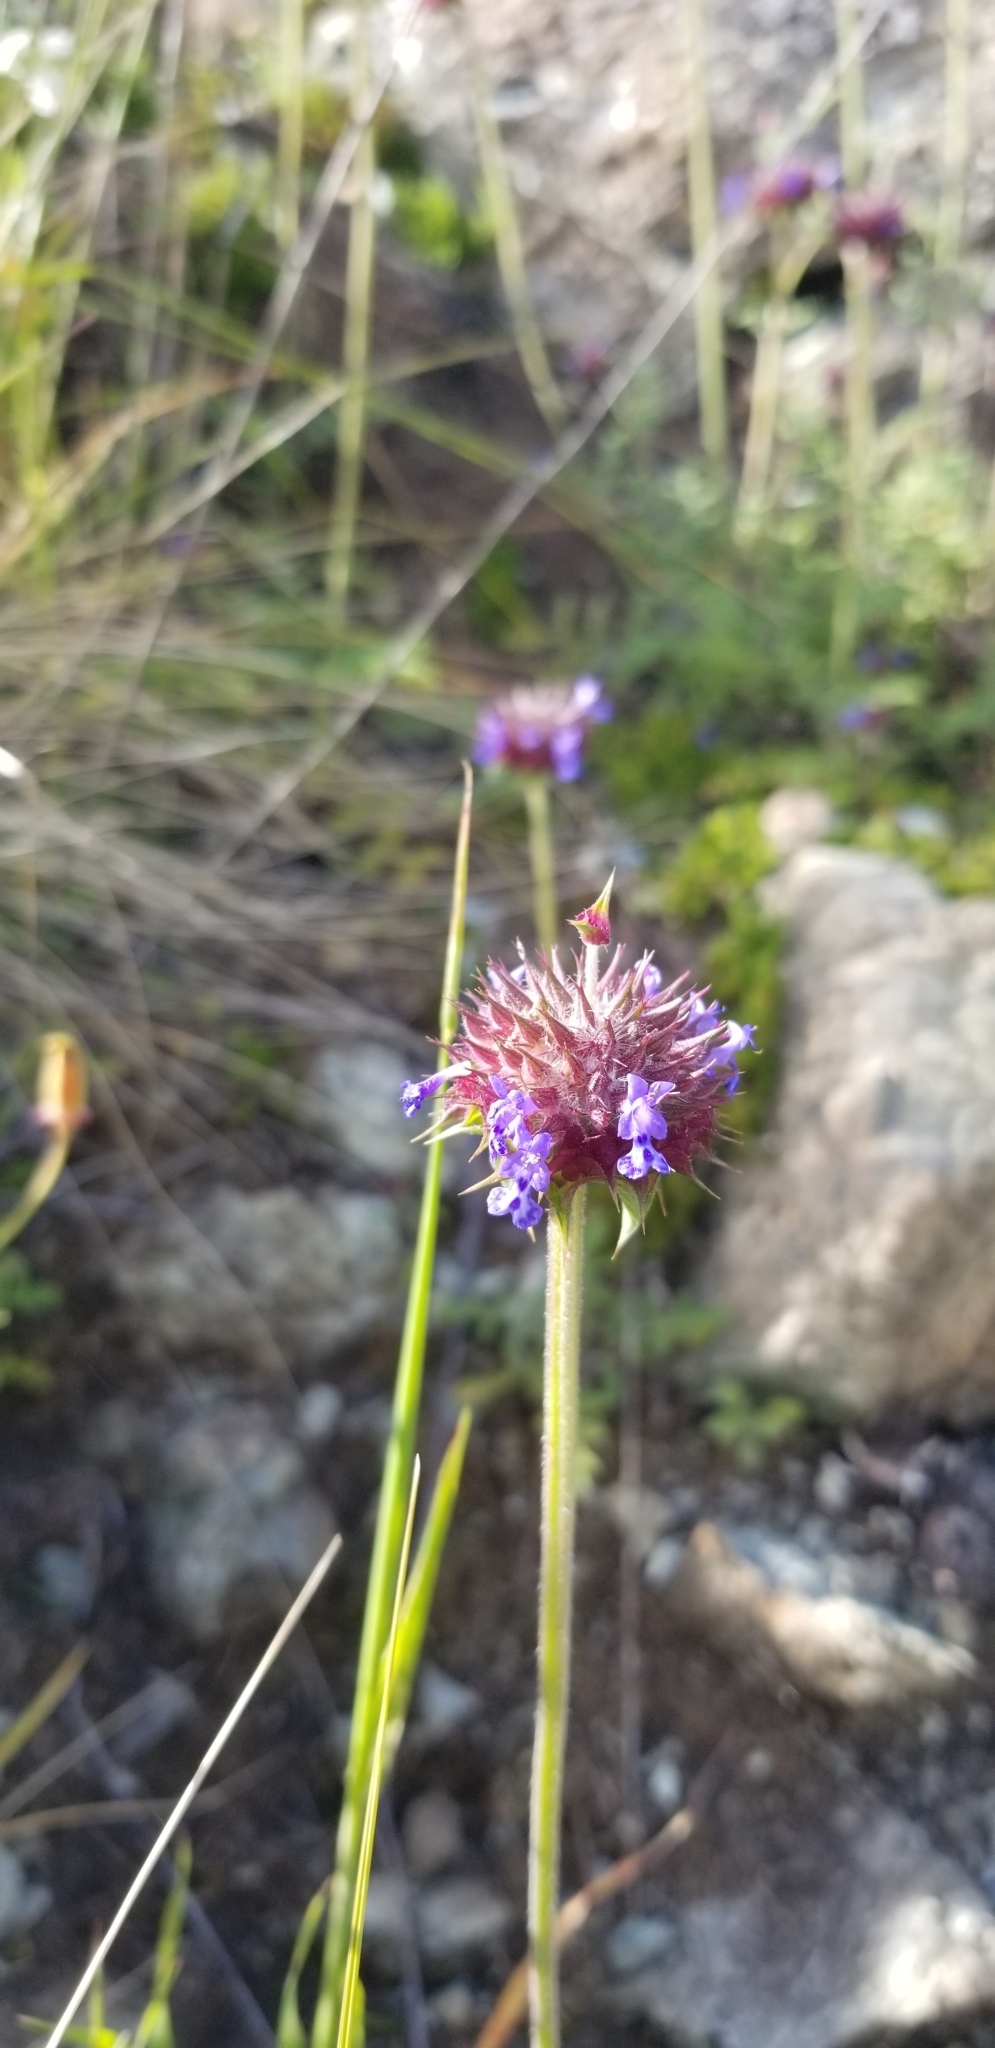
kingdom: Plantae
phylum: Tracheophyta
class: Magnoliopsida
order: Lamiales
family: Lamiaceae
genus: Salvia
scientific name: Salvia columbariae
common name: Chia
